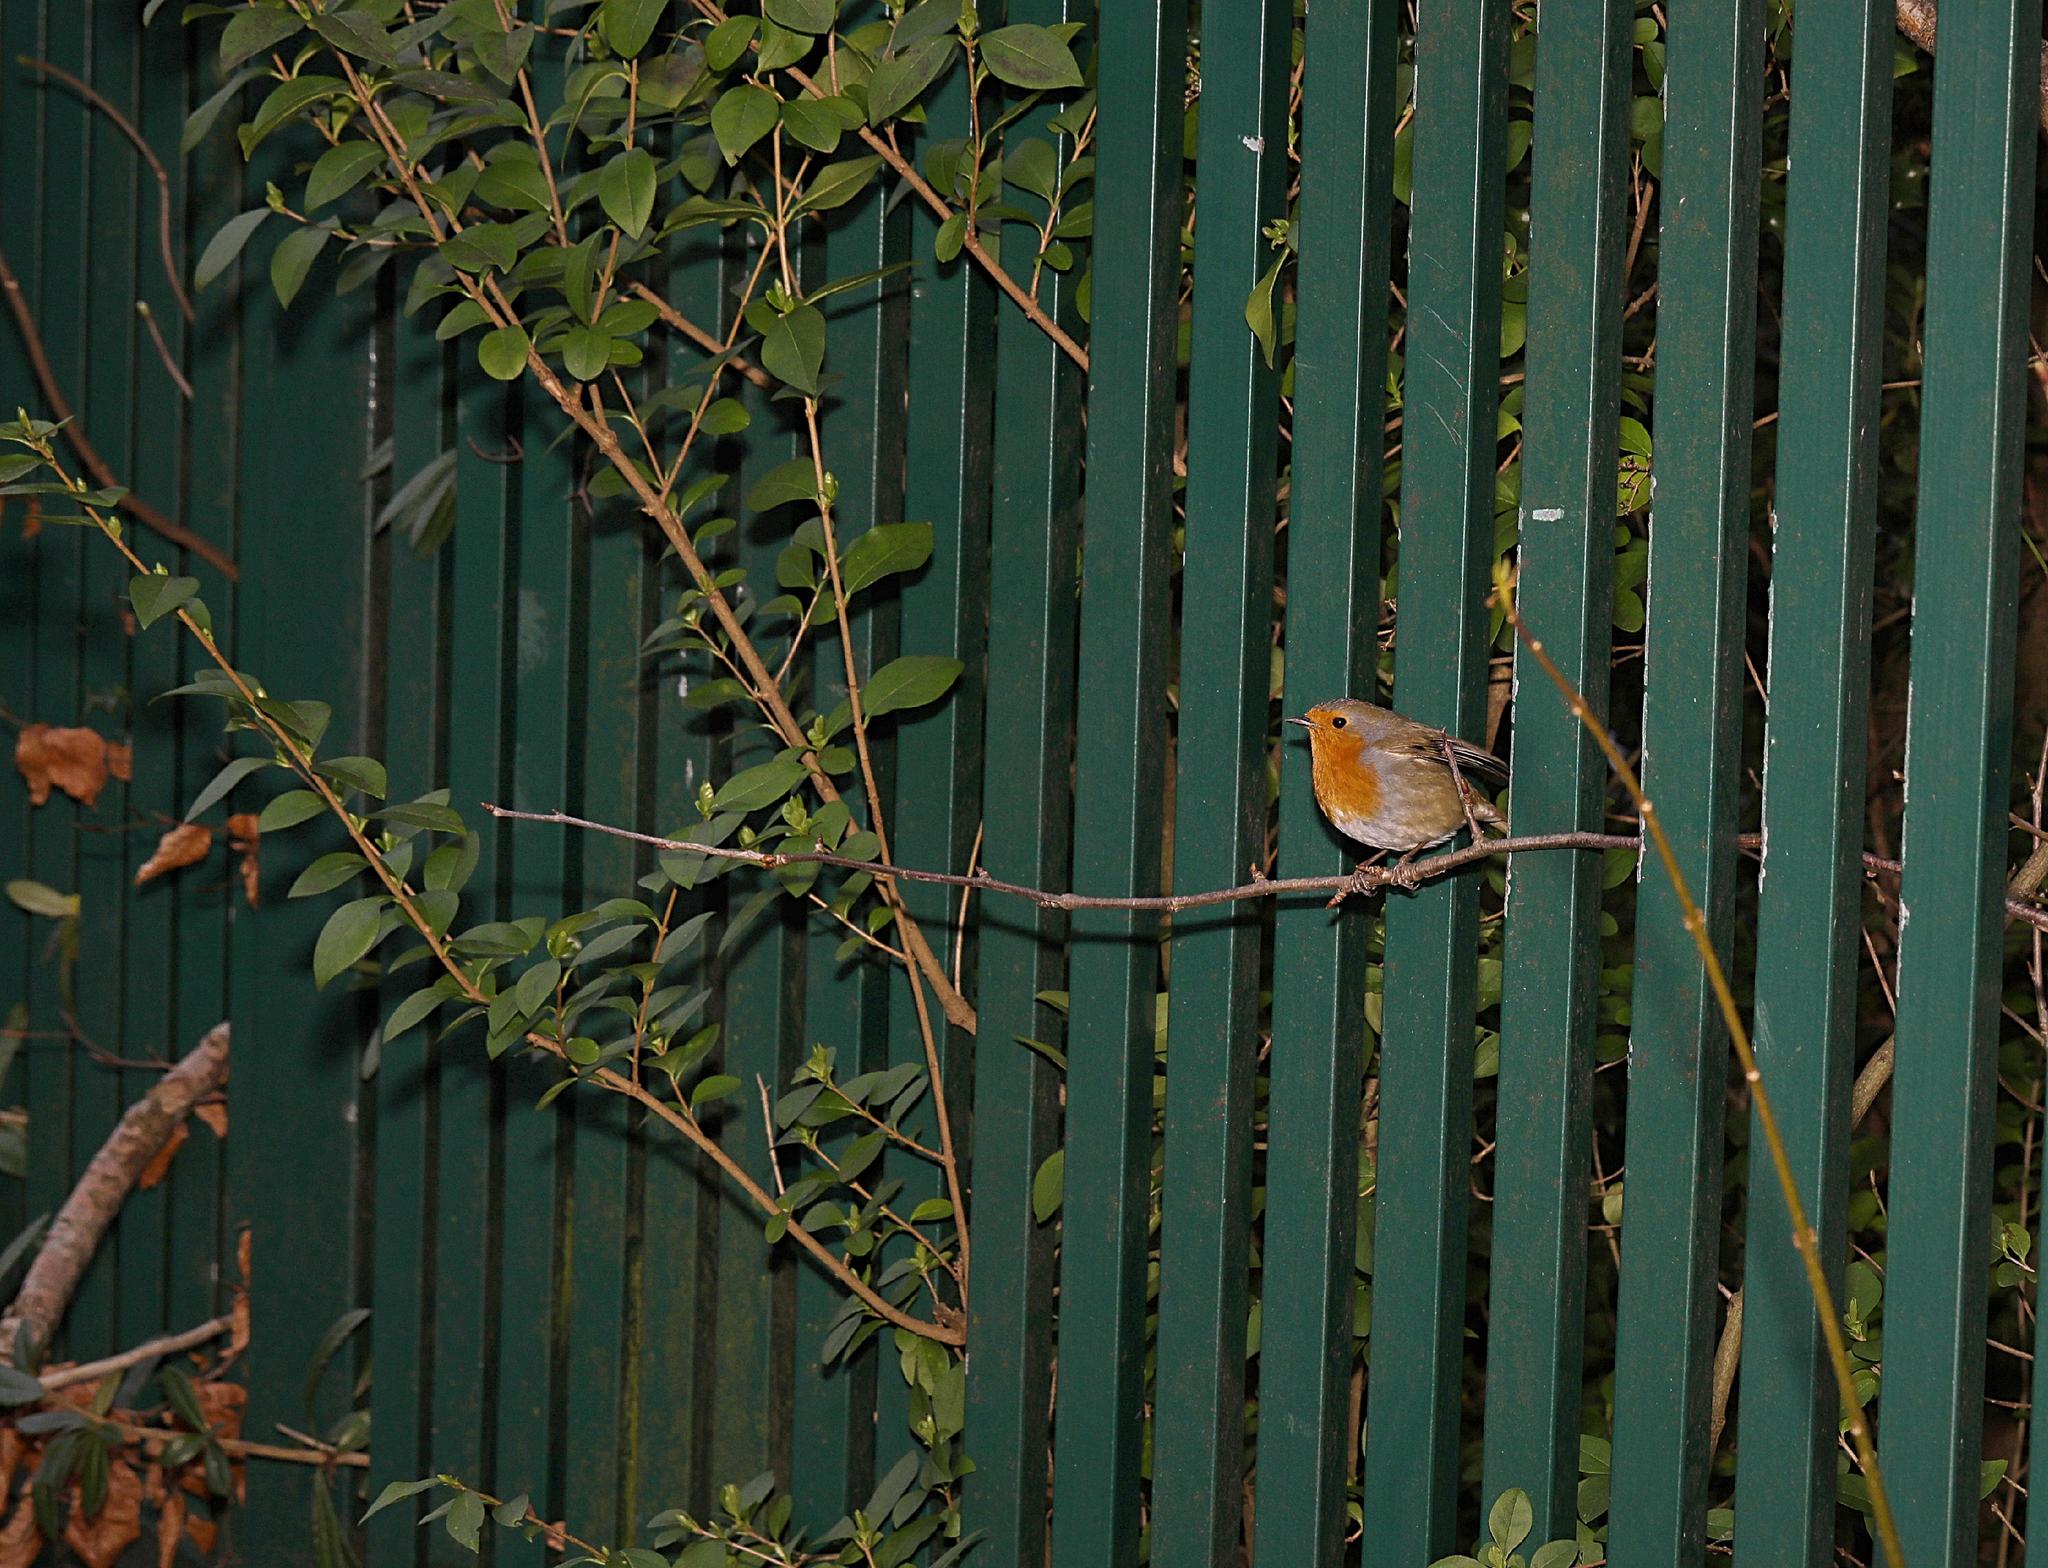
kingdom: Animalia
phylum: Chordata
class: Aves
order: Passeriformes
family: Muscicapidae
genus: Erithacus
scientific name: Erithacus rubecula
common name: European robin
